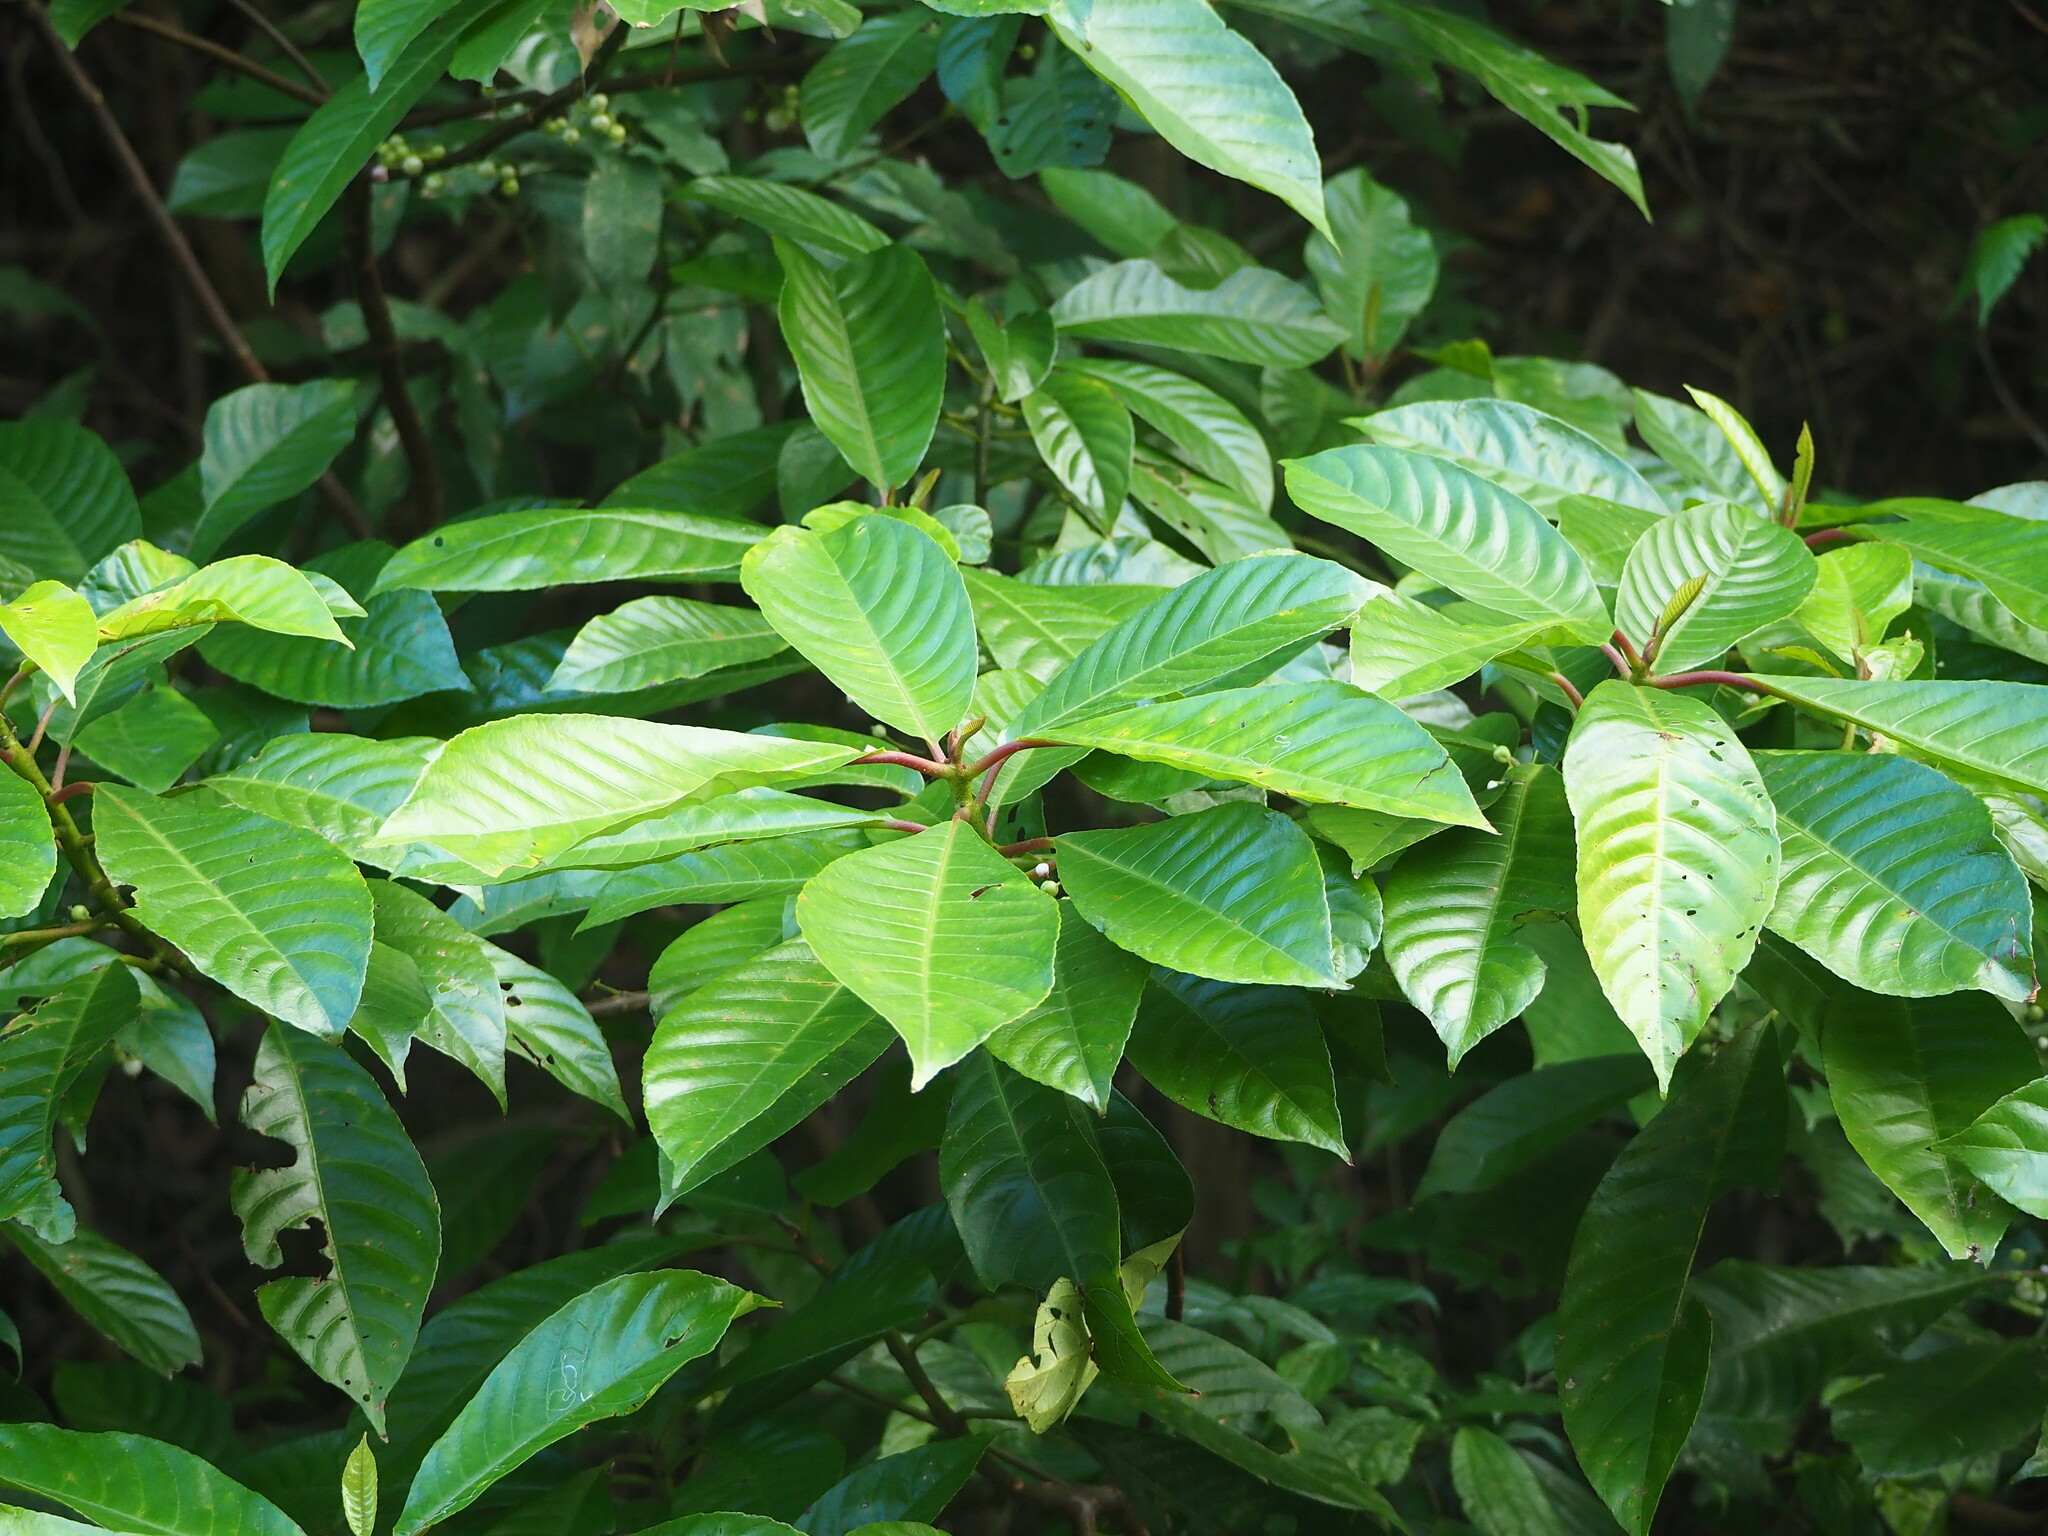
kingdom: Plantae
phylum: Tracheophyta
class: Magnoliopsida
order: Ericales
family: Actinidiaceae
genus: Saurauia
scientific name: Saurauia tristyla
